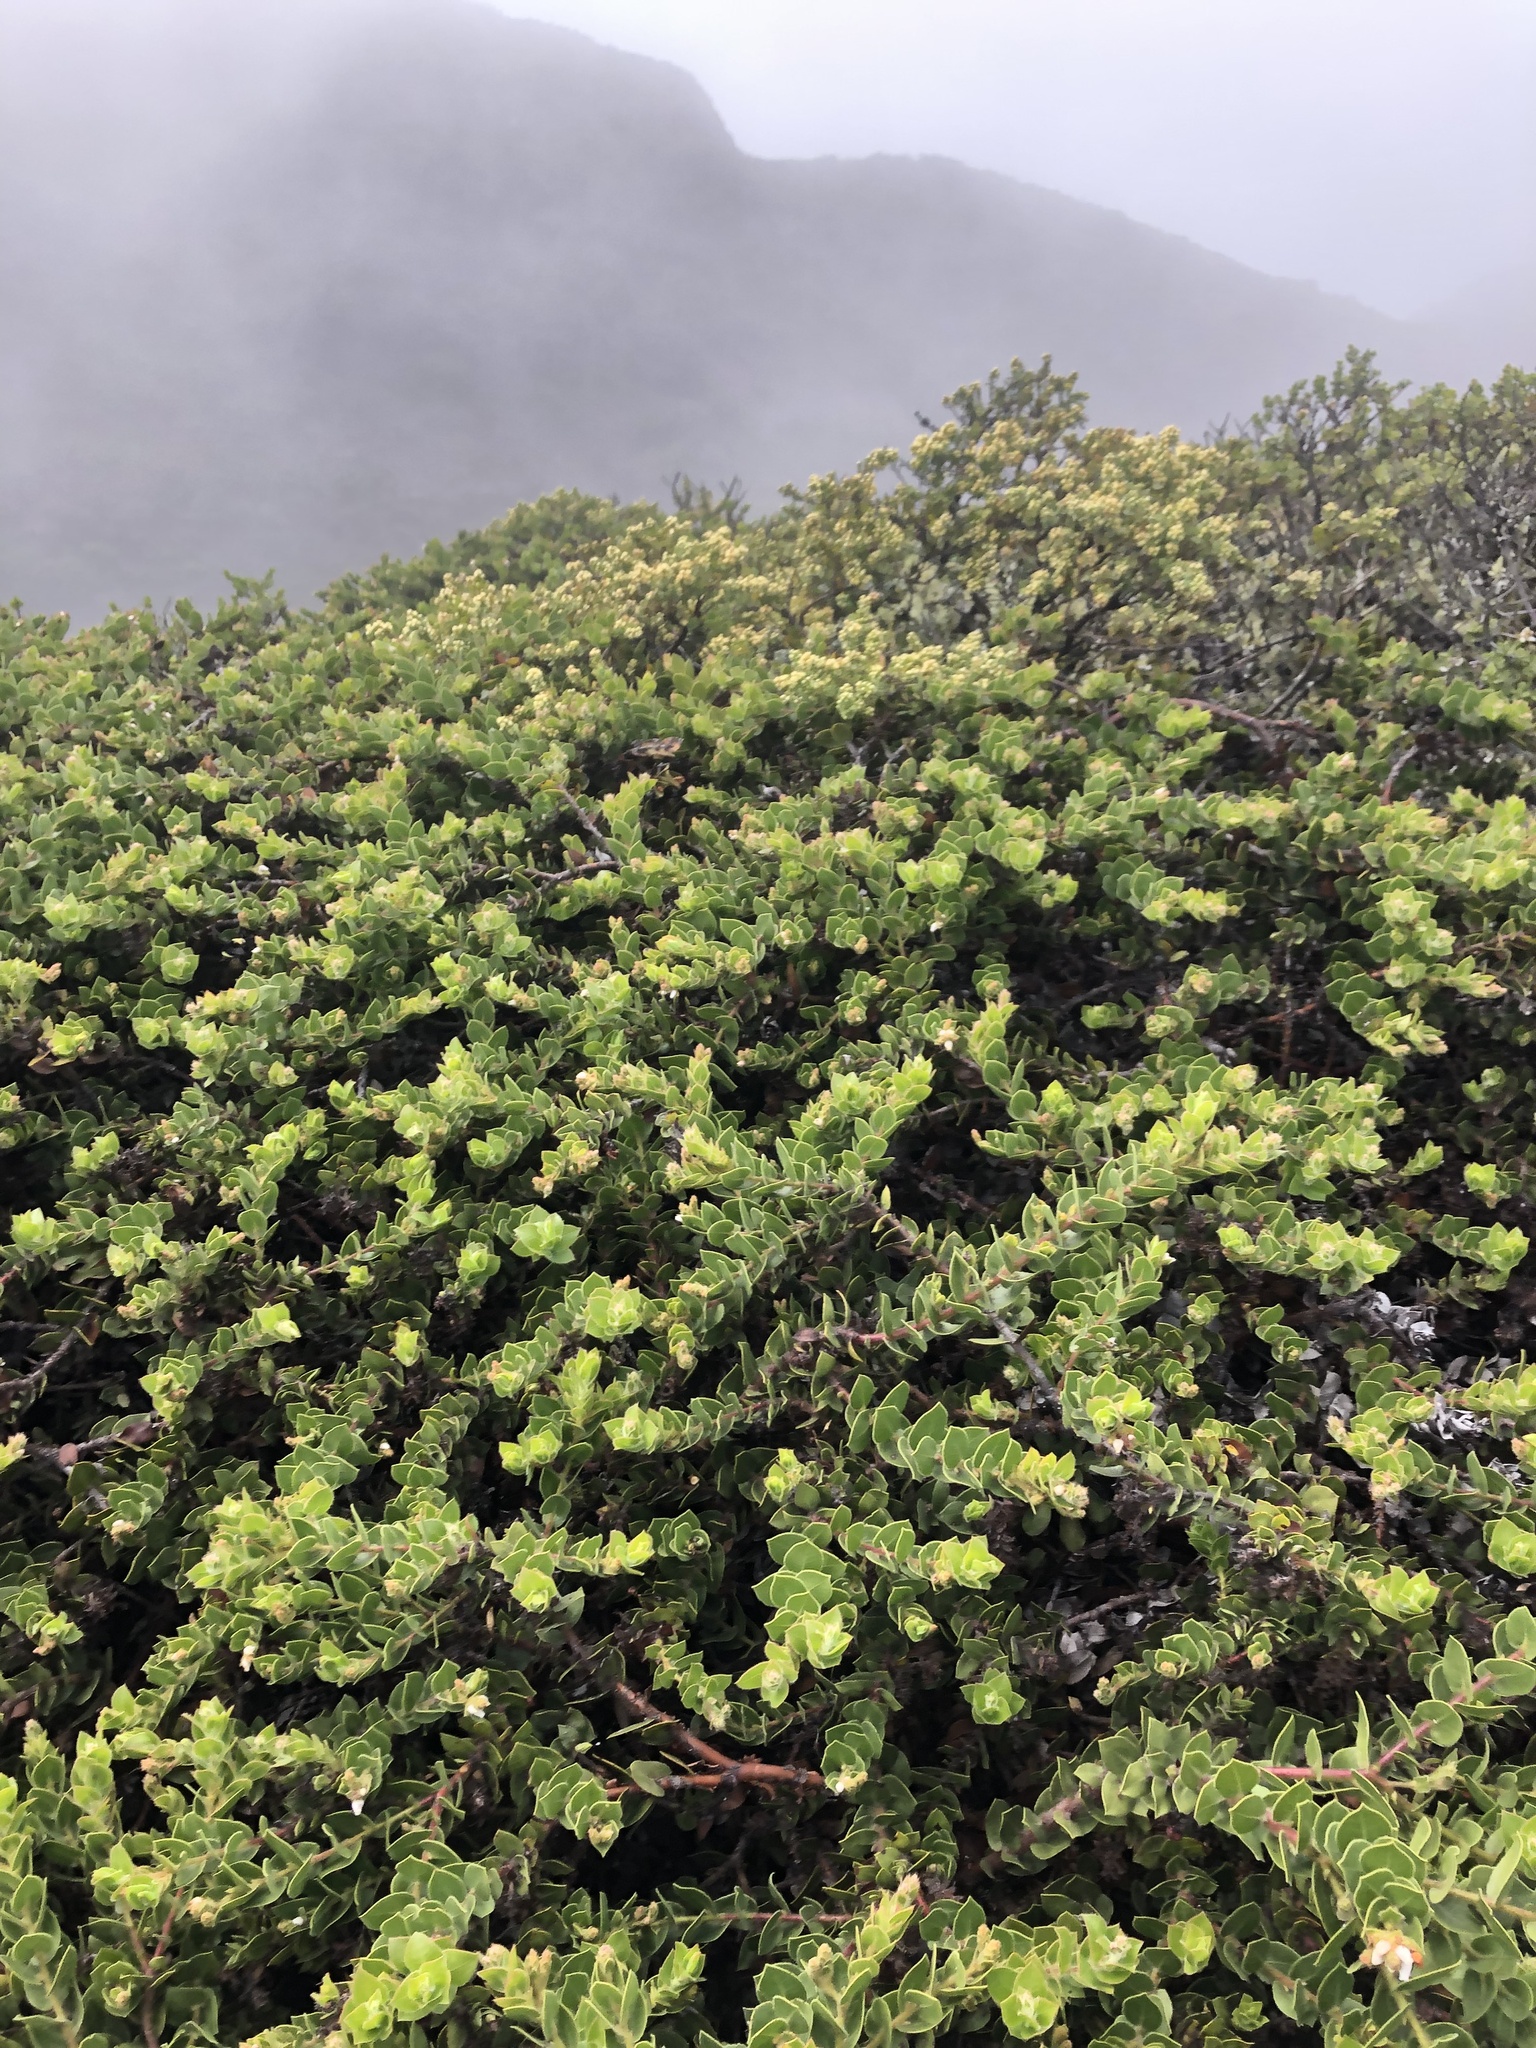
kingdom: Plantae
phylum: Tracheophyta
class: Magnoliopsida
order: Ericales
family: Ericaceae
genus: Arctostaphylos
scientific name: Arctostaphylos imbricata
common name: San bruno mountain manzanita
